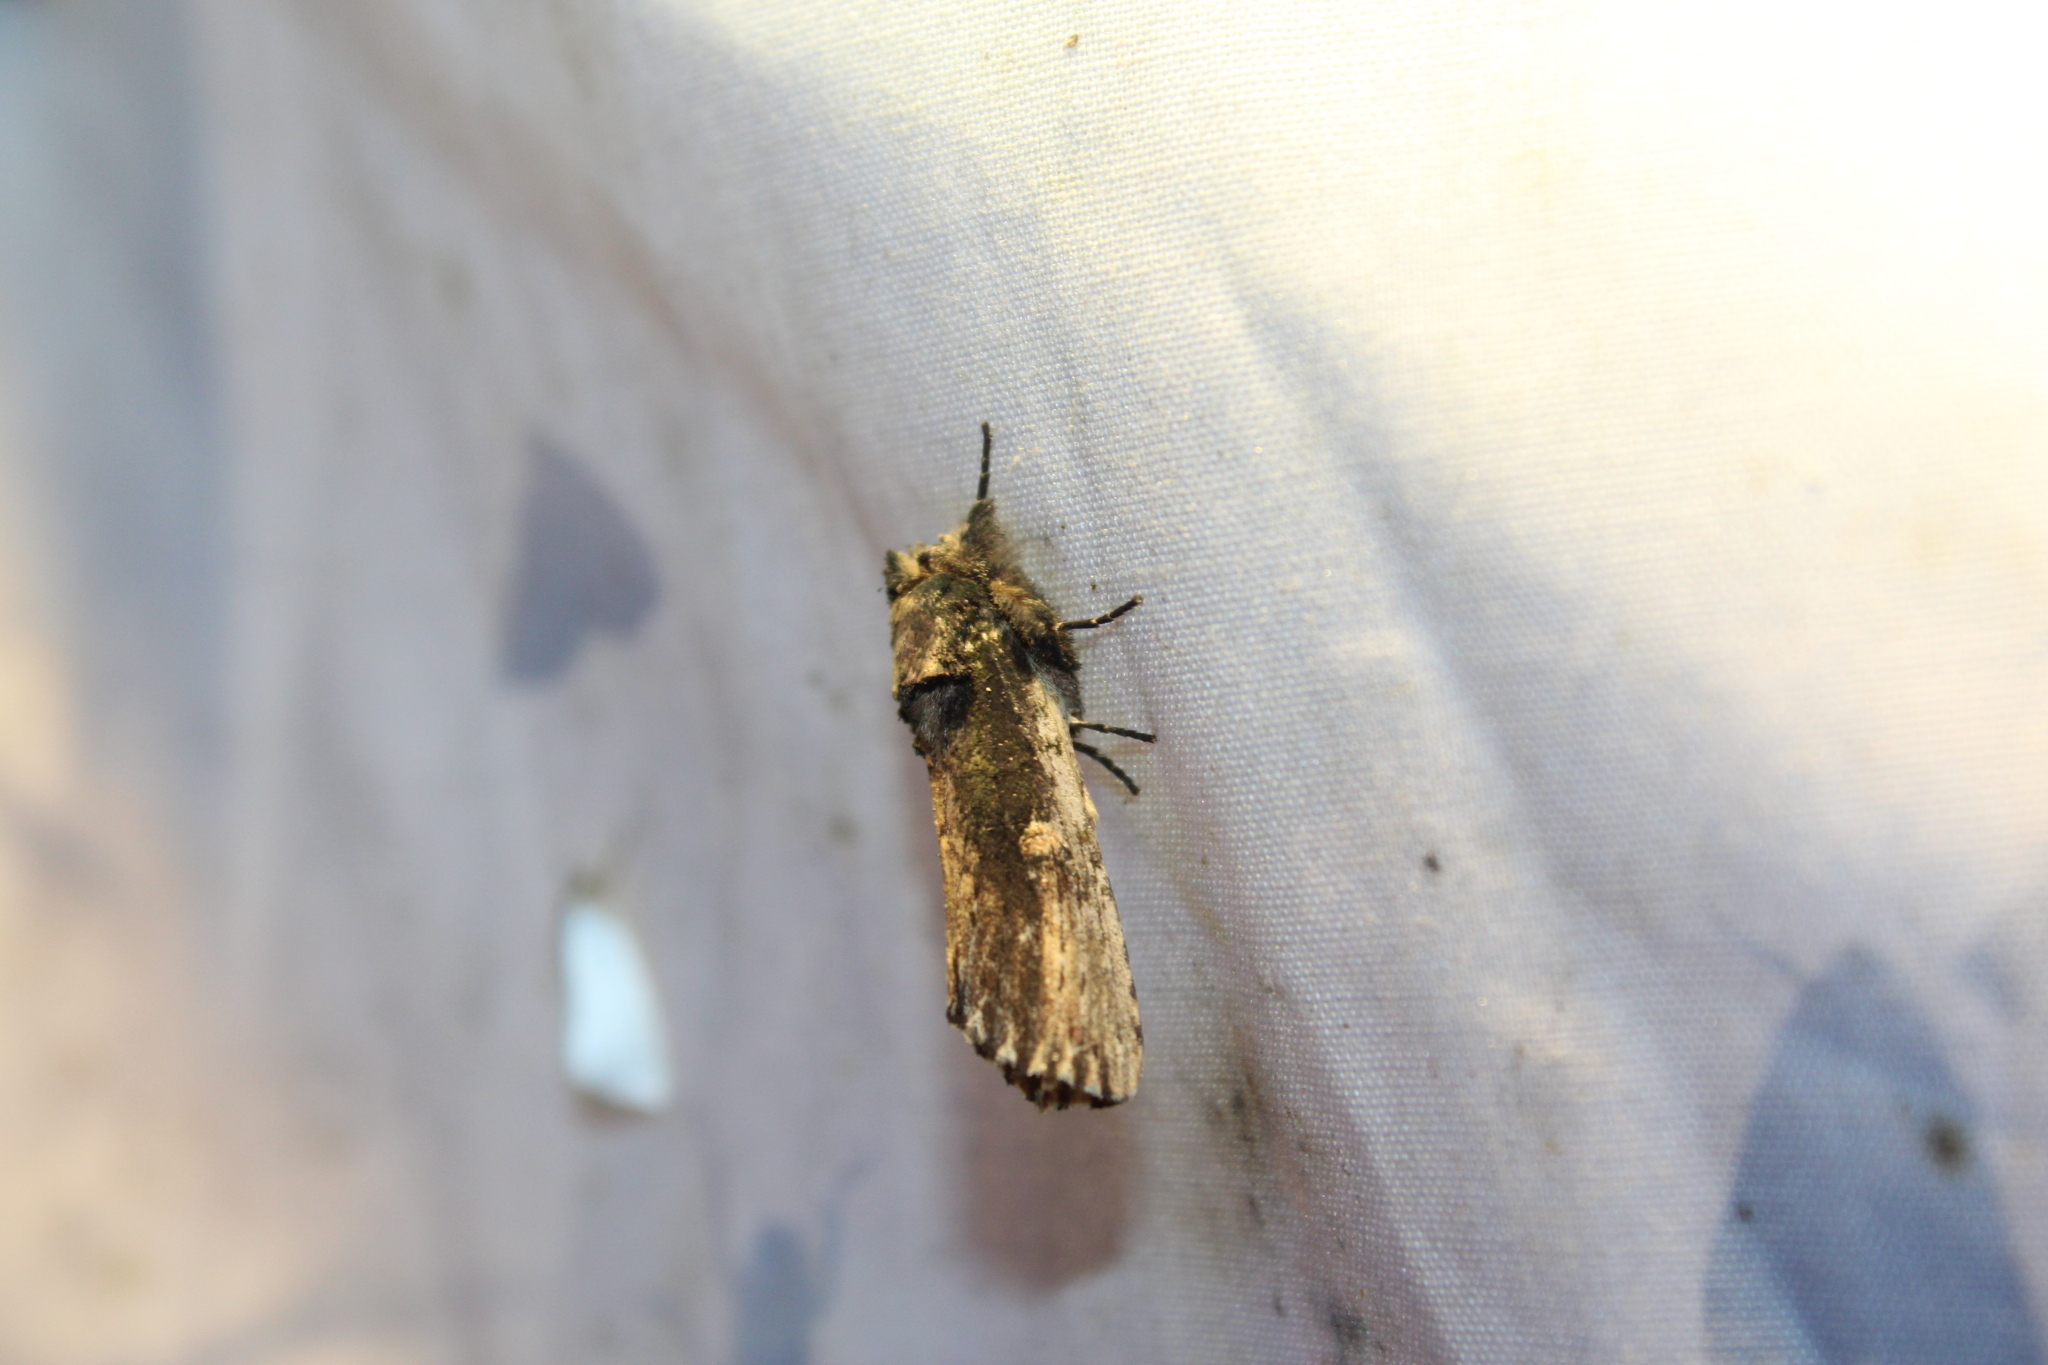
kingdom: Animalia
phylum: Arthropoda
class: Insecta
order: Lepidoptera
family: Notodontidae
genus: Schizura
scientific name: Schizura ipomaeae
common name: Morning-glory prominent
